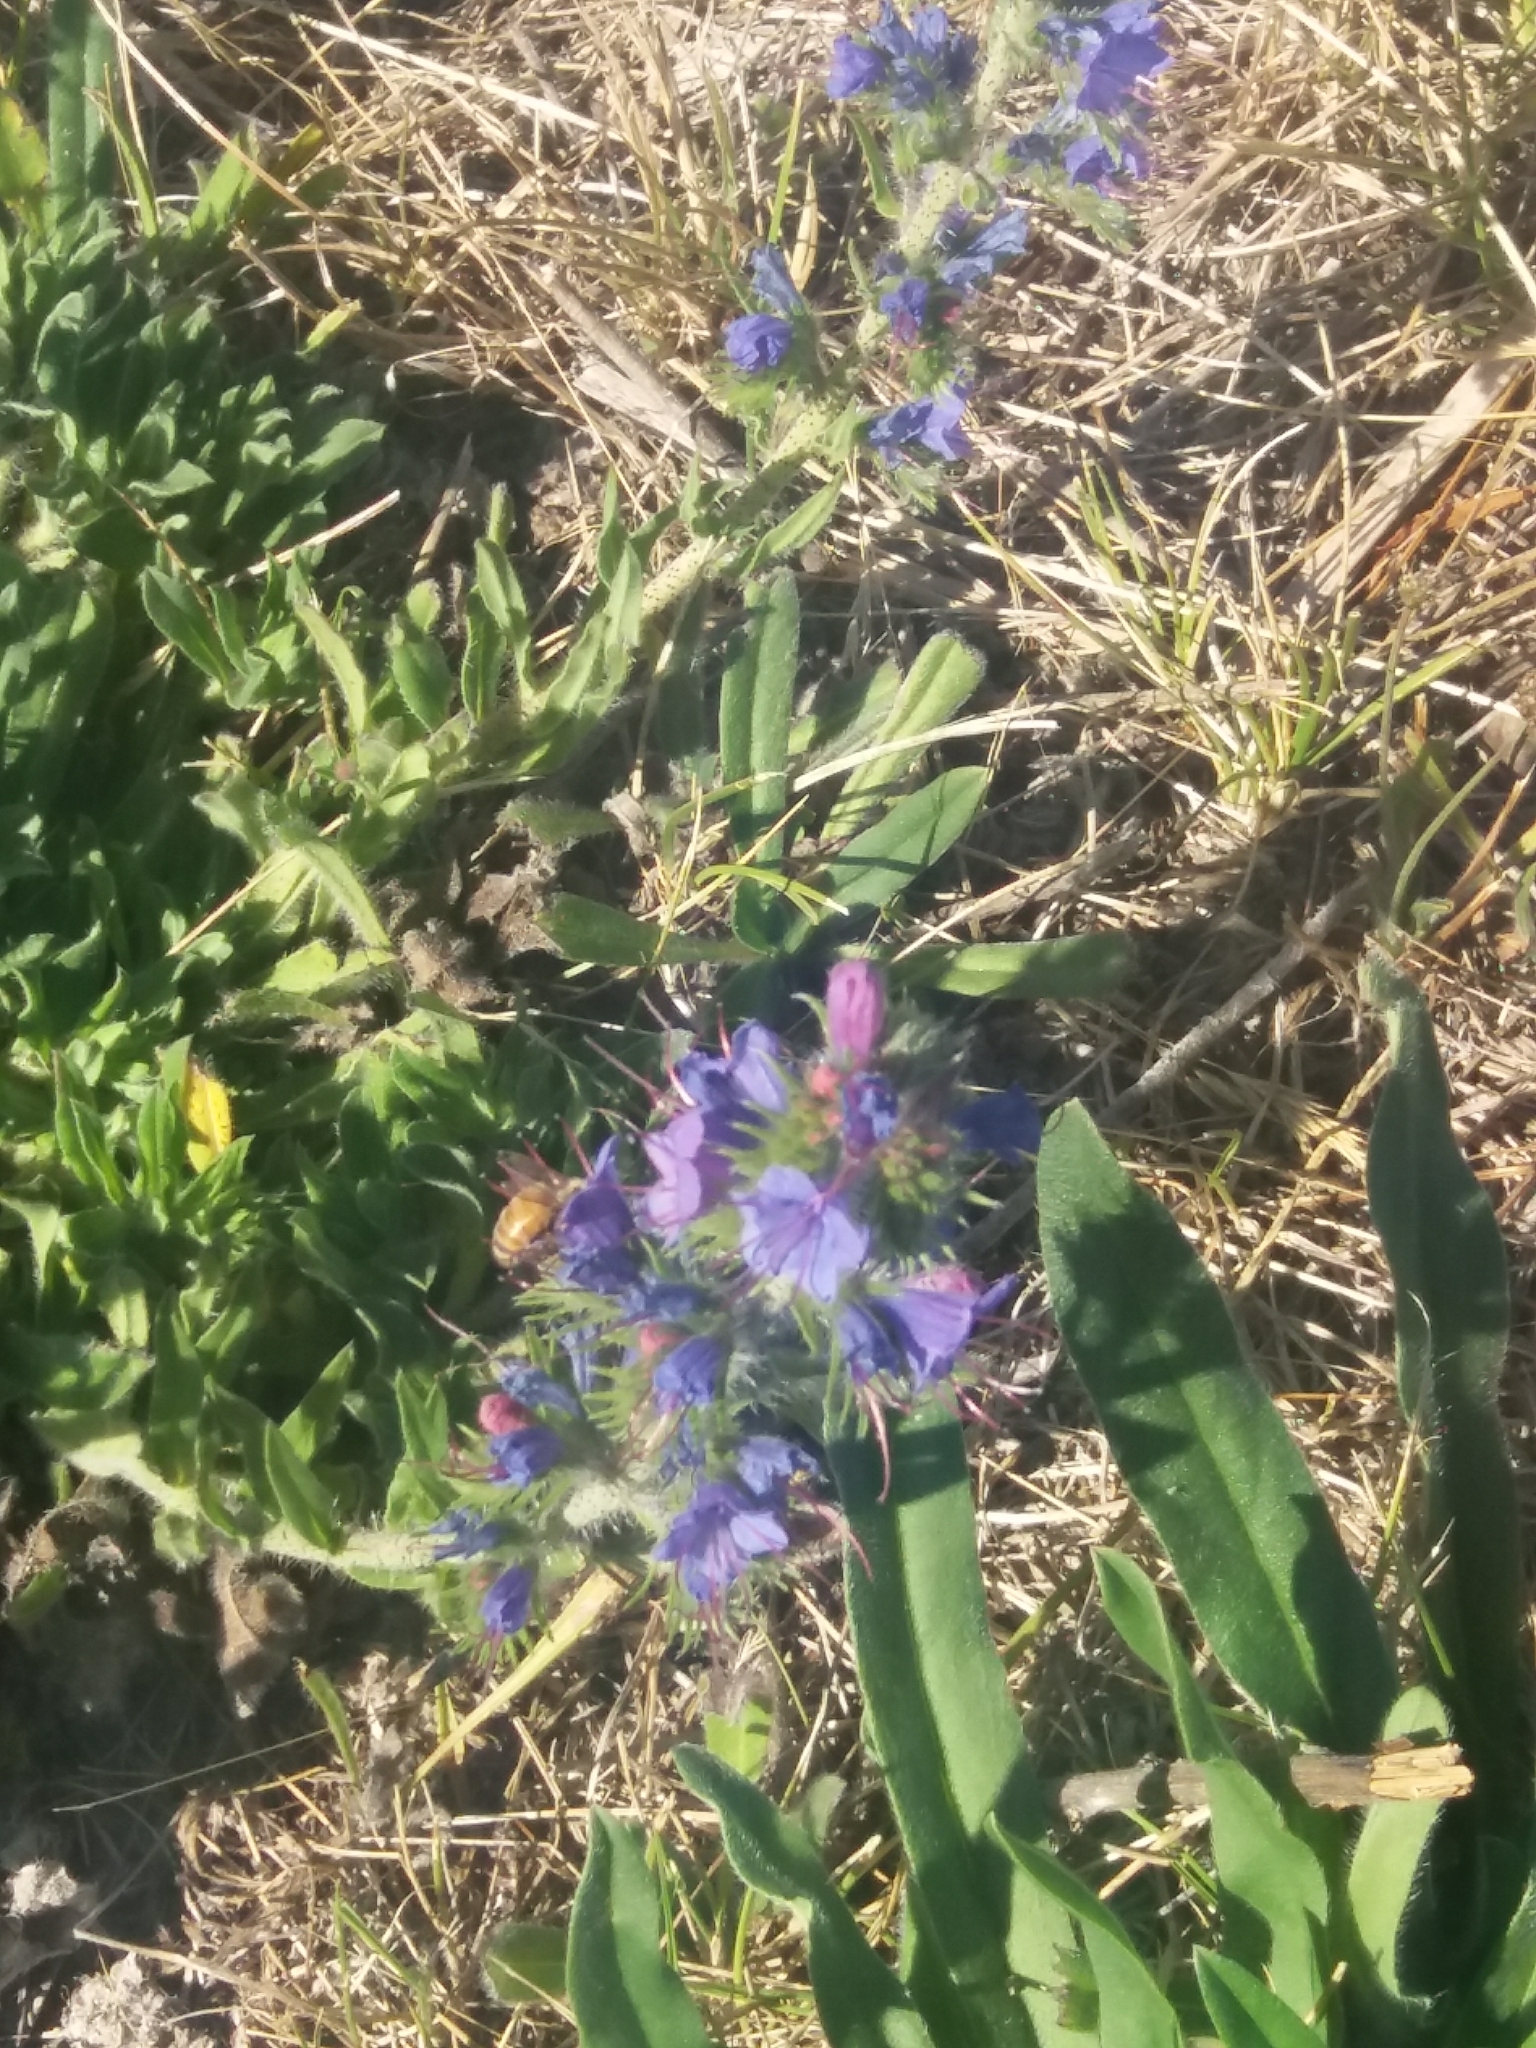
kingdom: Plantae
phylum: Tracheophyta
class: Magnoliopsida
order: Boraginales
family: Boraginaceae
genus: Echium
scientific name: Echium vulgare
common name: Common viper's bugloss
